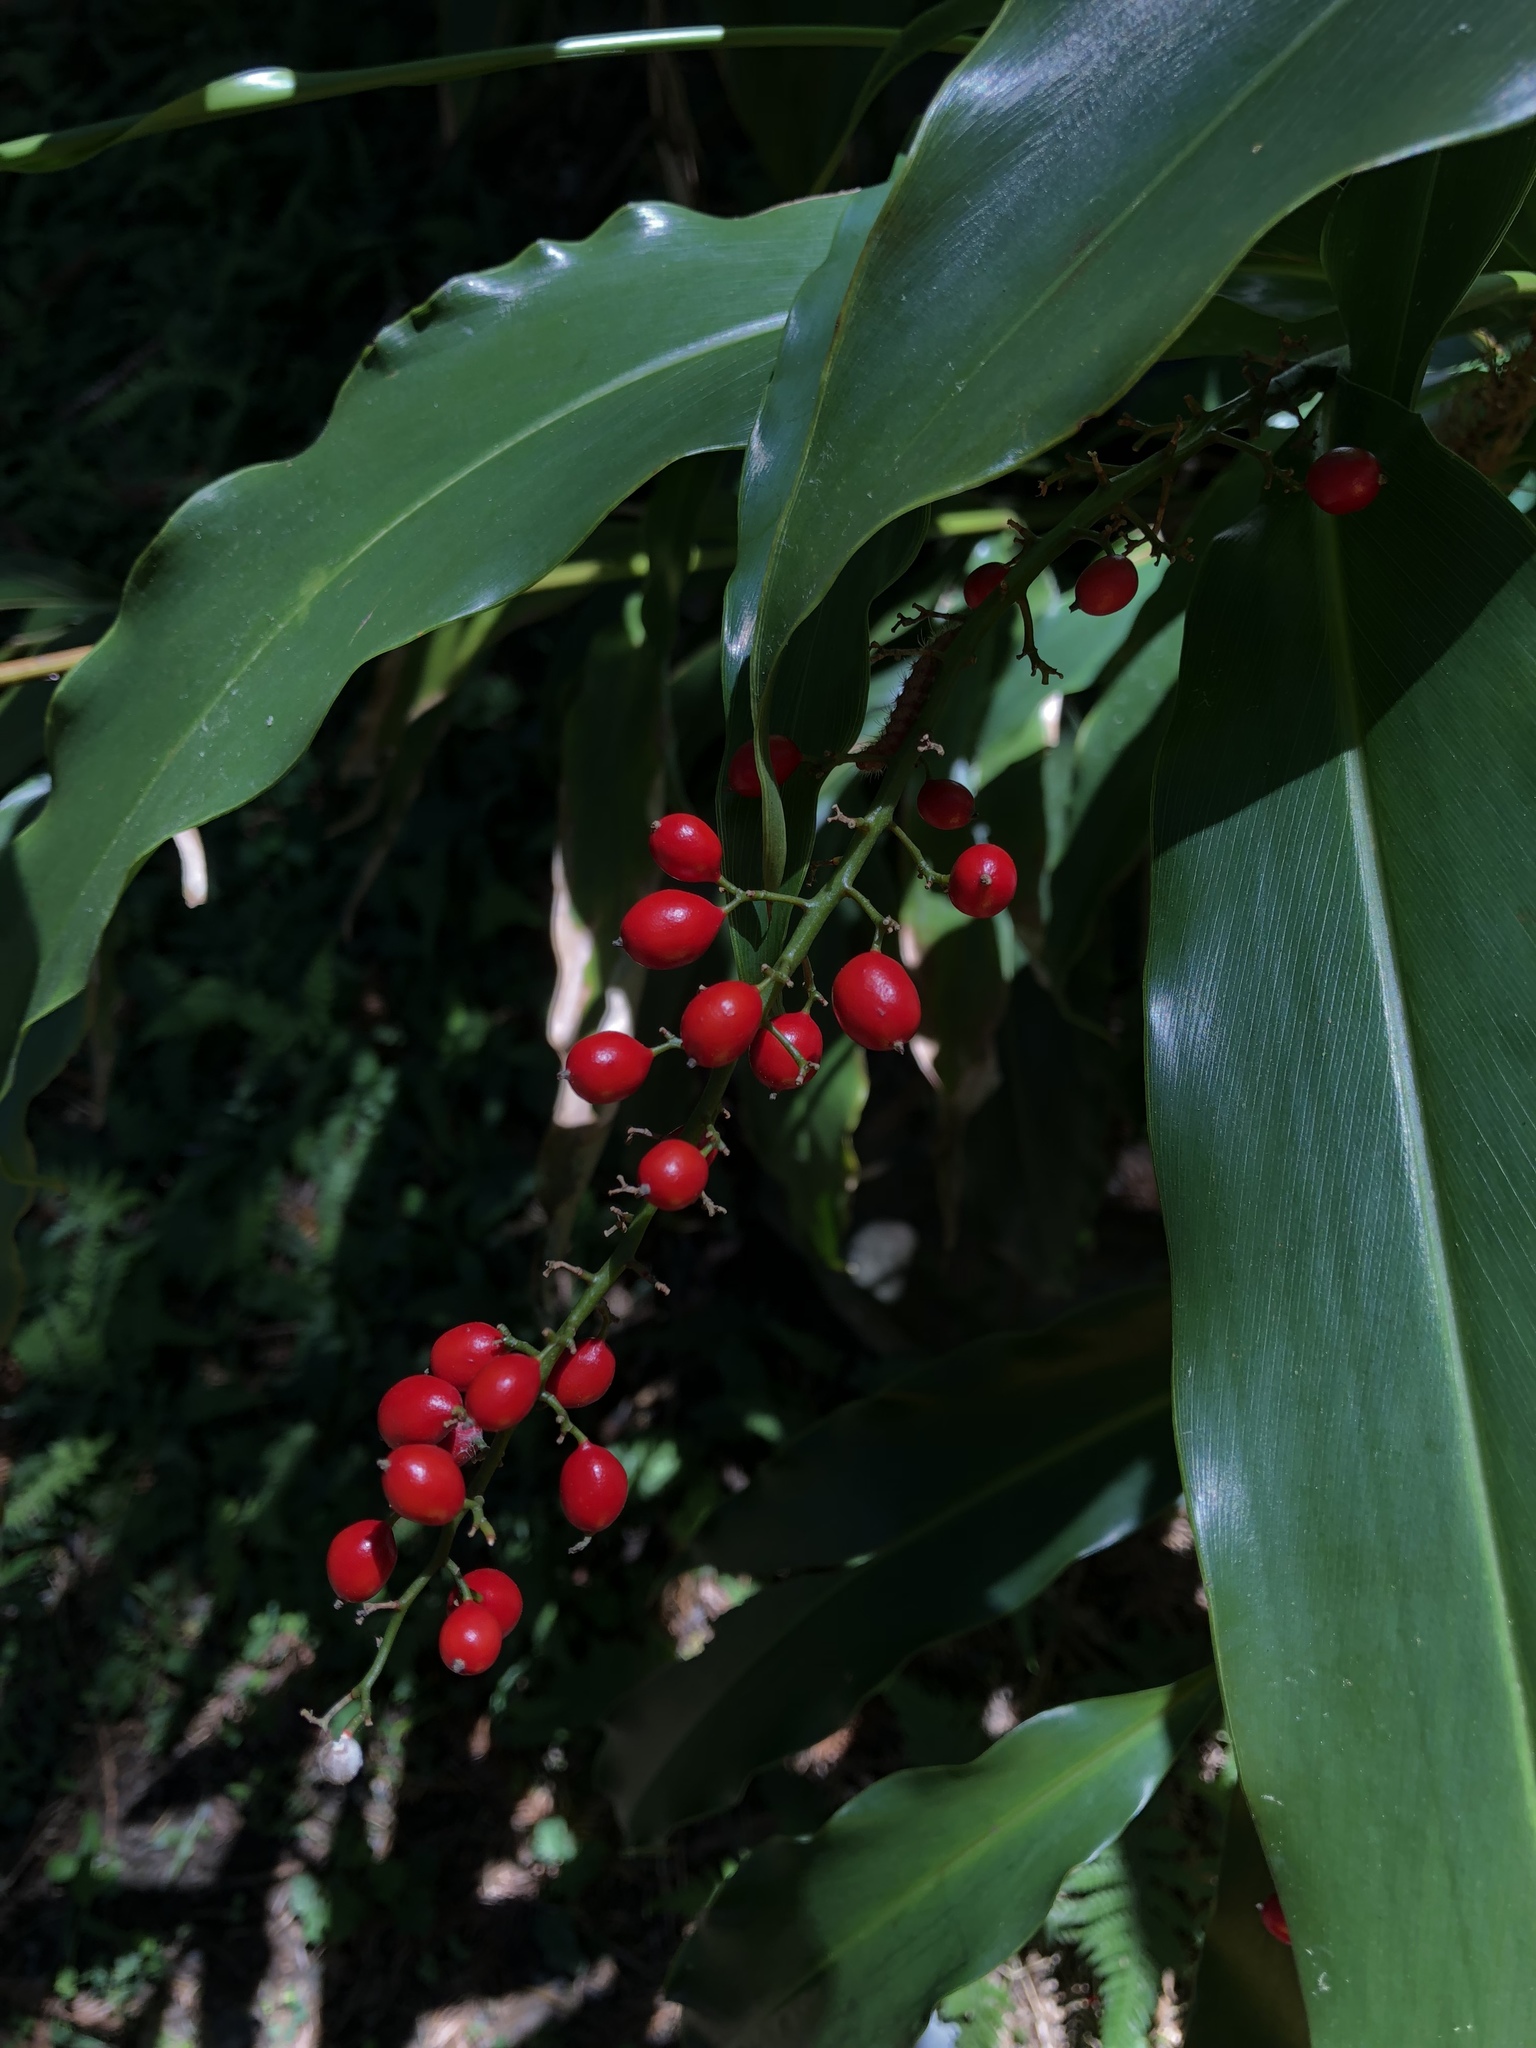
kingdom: Plantae
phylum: Tracheophyta
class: Liliopsida
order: Zingiberales
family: Zingiberaceae
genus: Alpinia
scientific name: Alpinia intermedia
